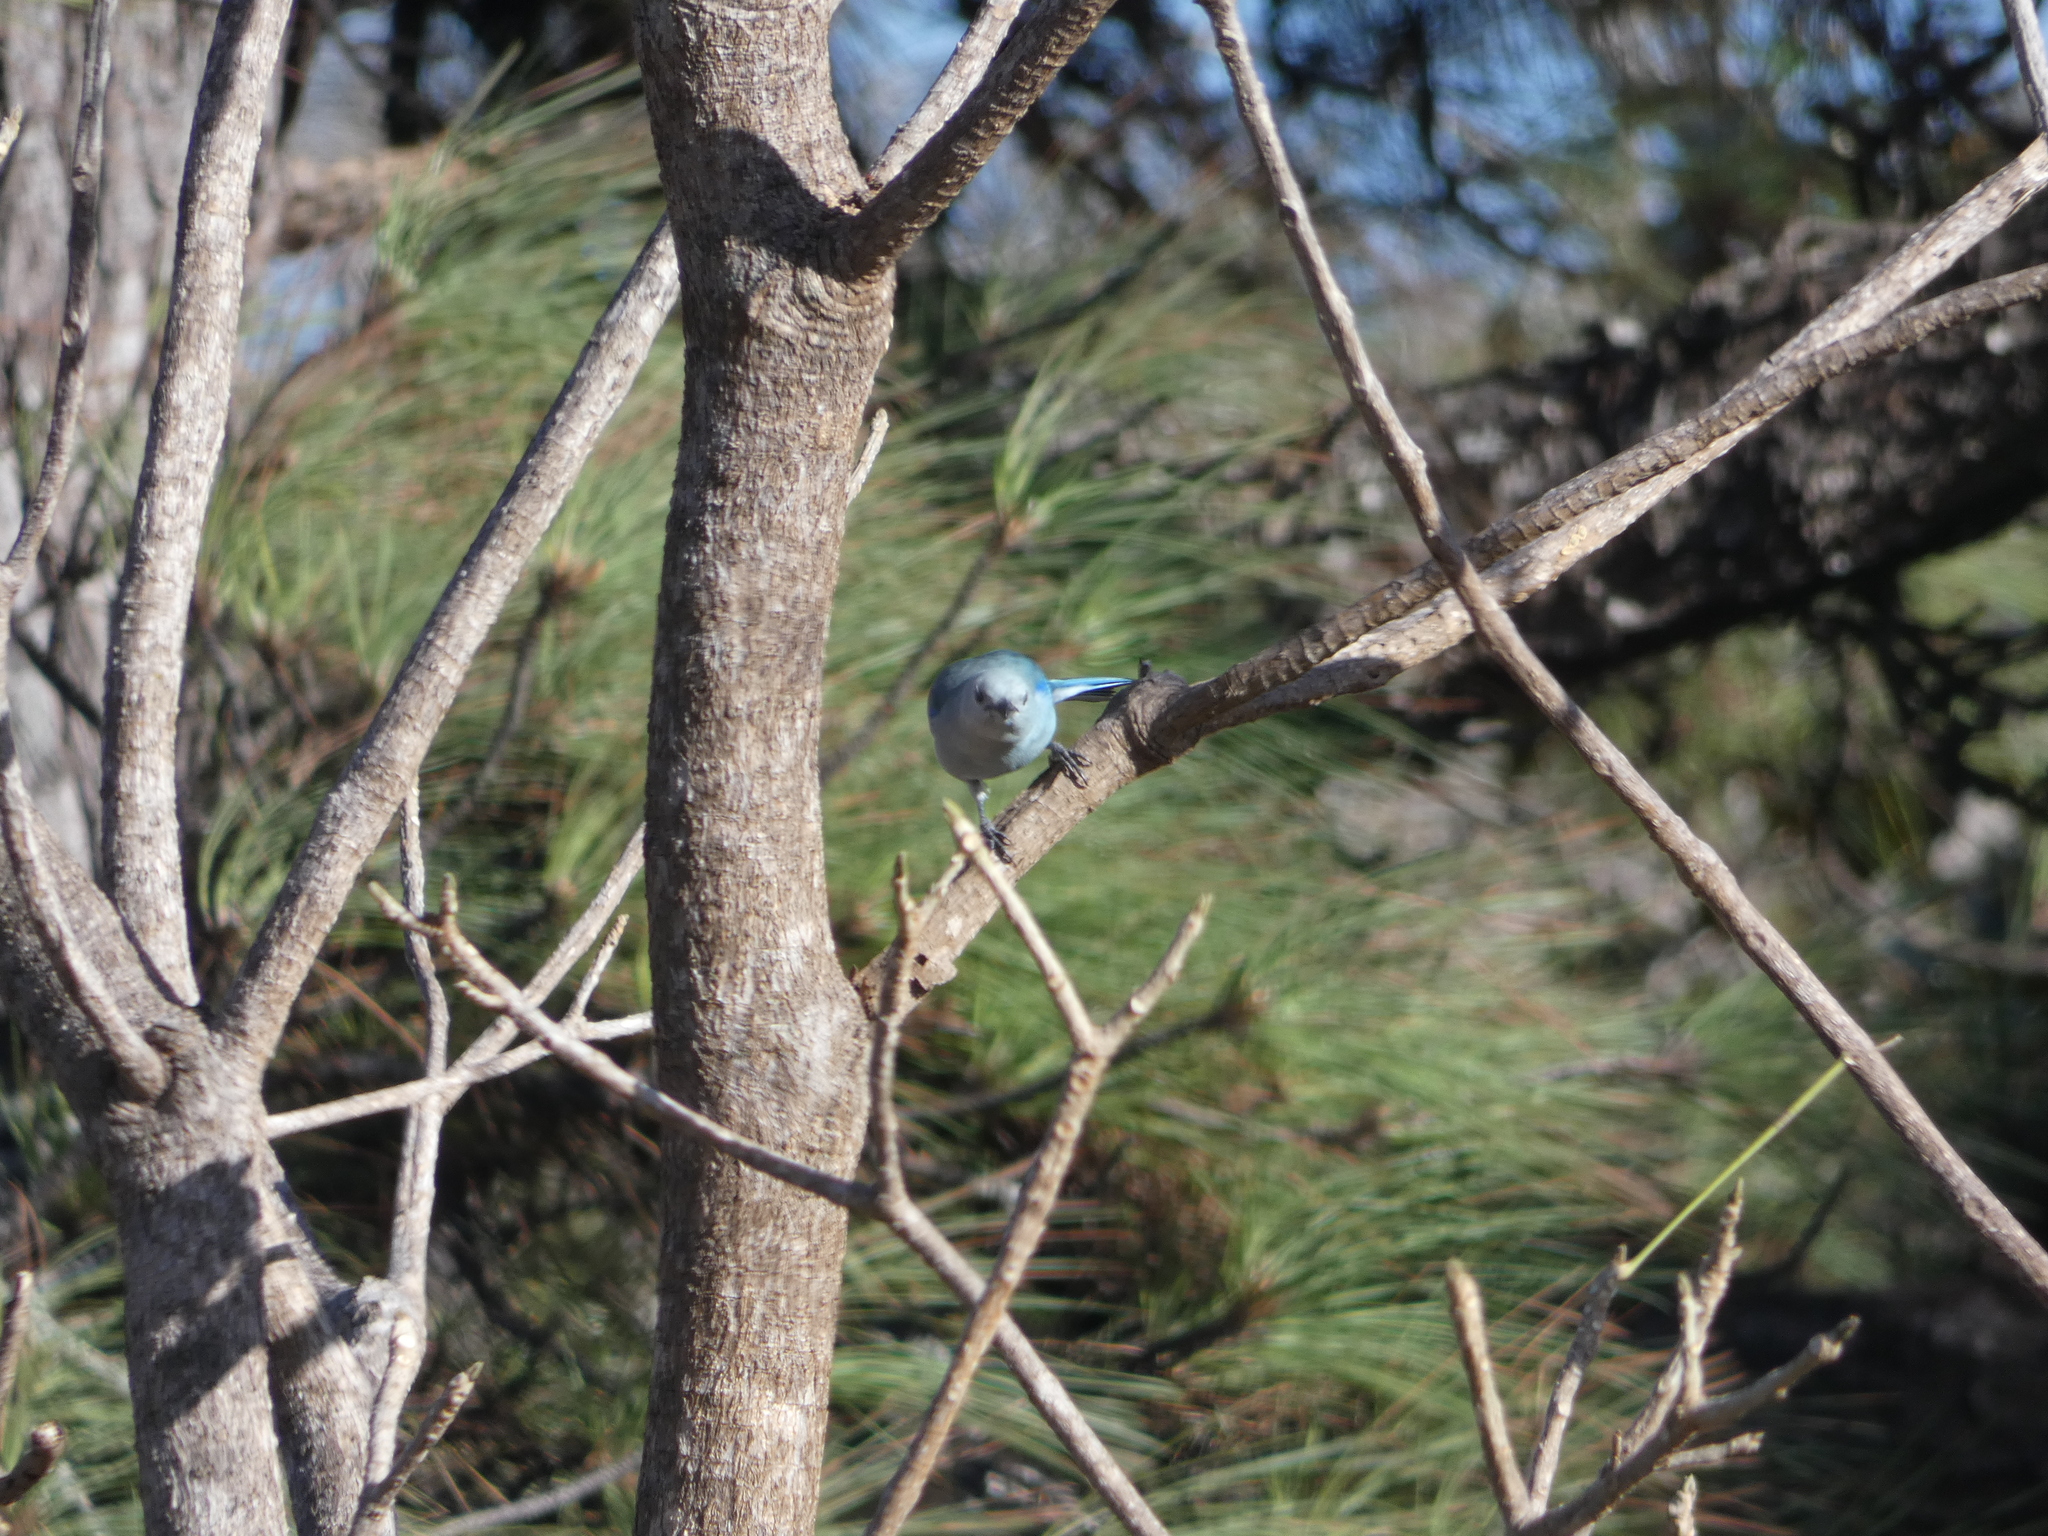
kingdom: Animalia
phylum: Chordata
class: Aves
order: Passeriformes
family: Thraupidae
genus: Thraupis
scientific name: Thraupis episcopus
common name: Blue-grey tanager
